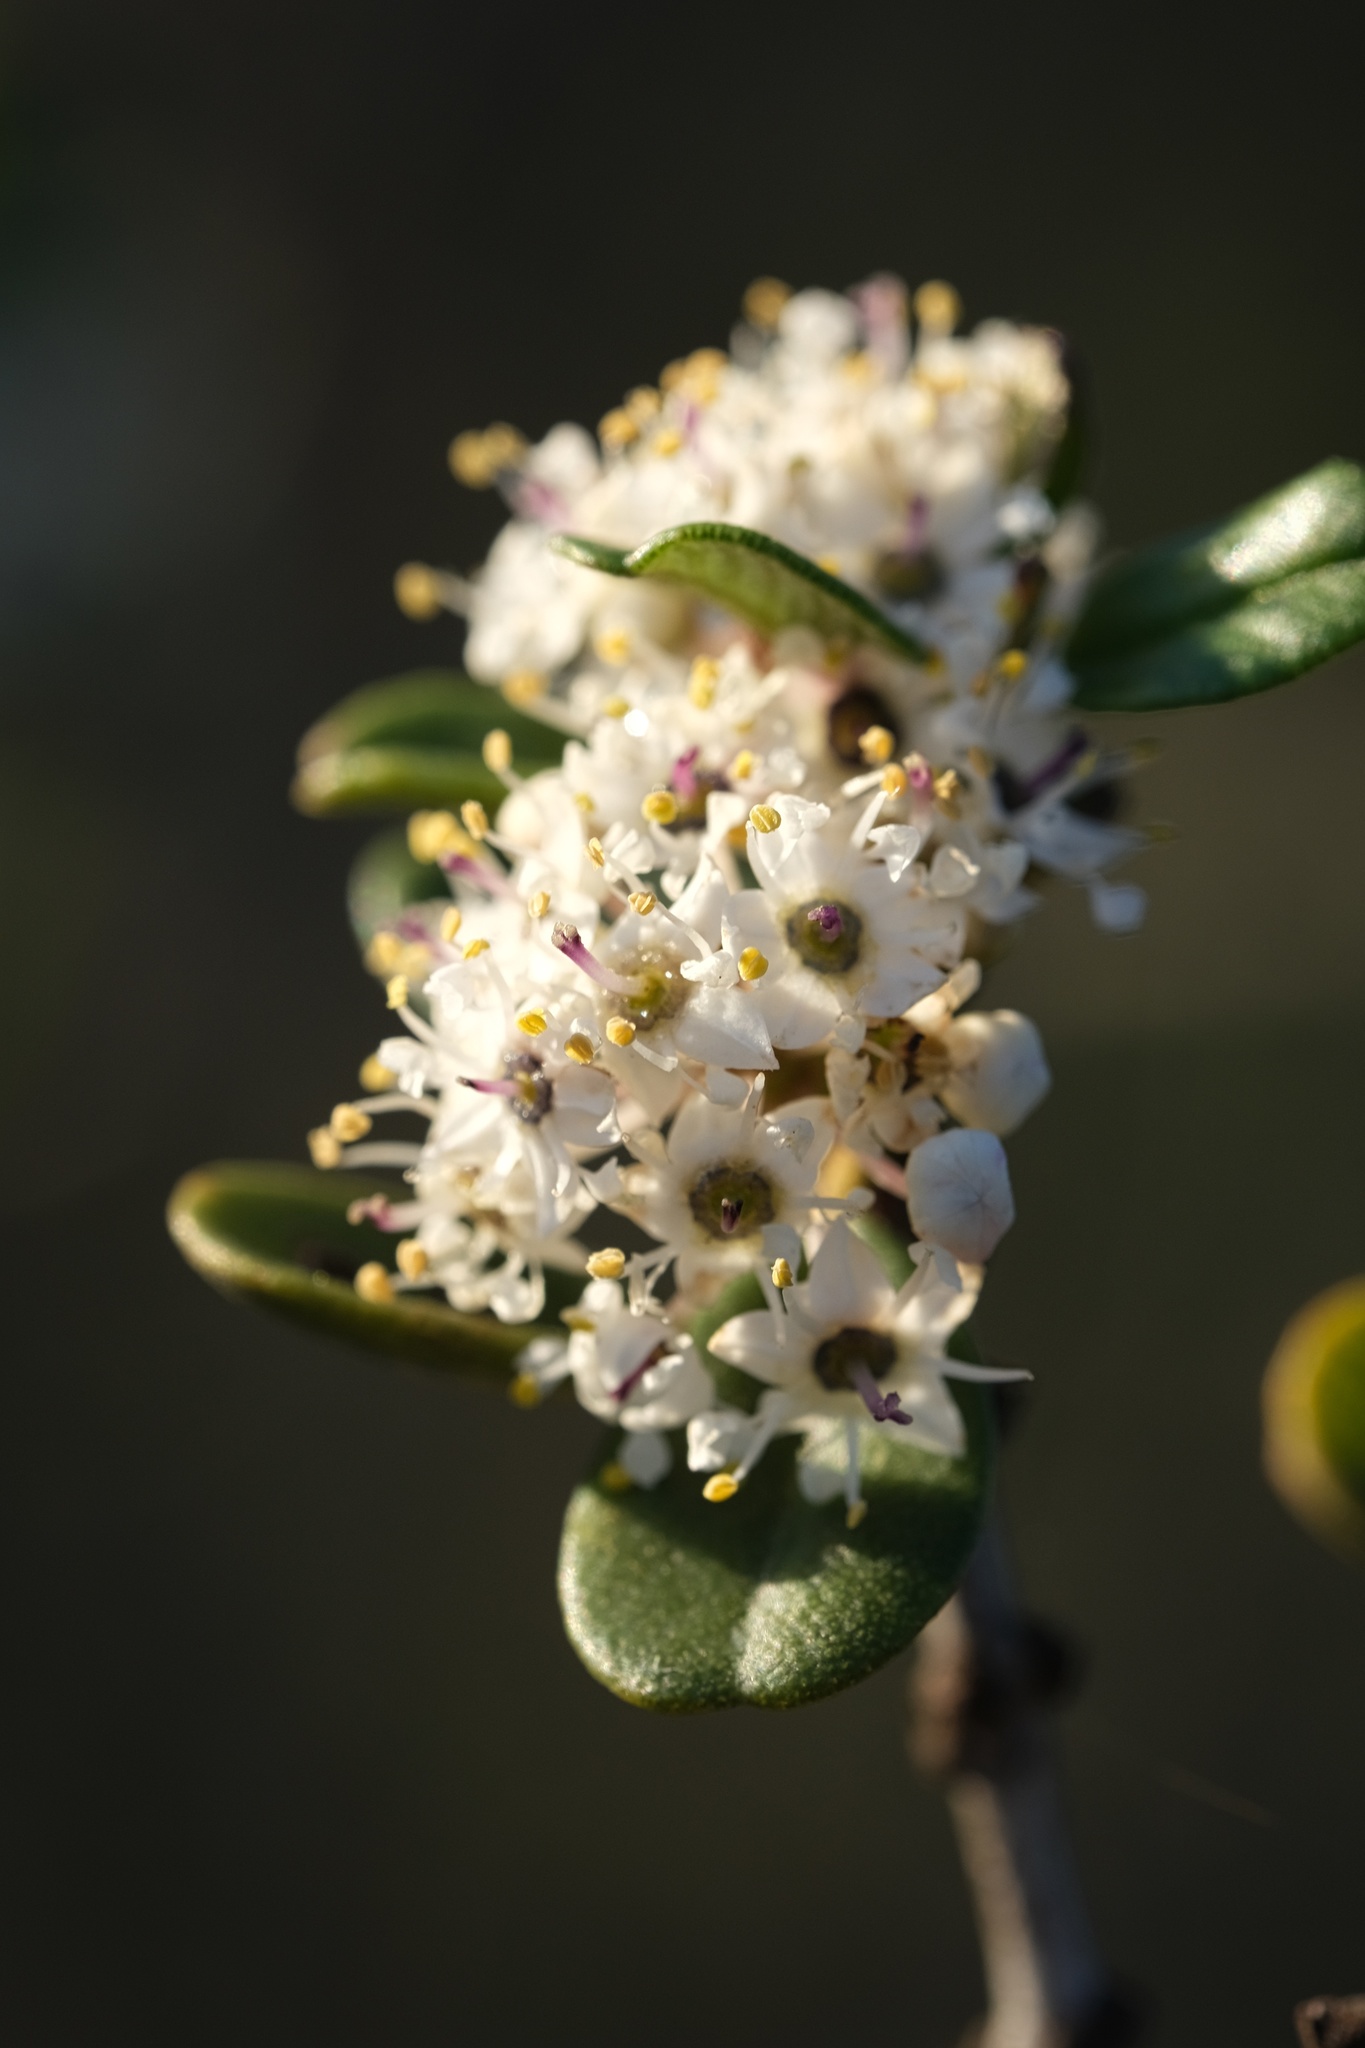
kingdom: Plantae
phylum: Tracheophyta
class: Magnoliopsida
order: Rosales
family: Rhamnaceae
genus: Ceanothus
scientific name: Ceanothus verrucosus
